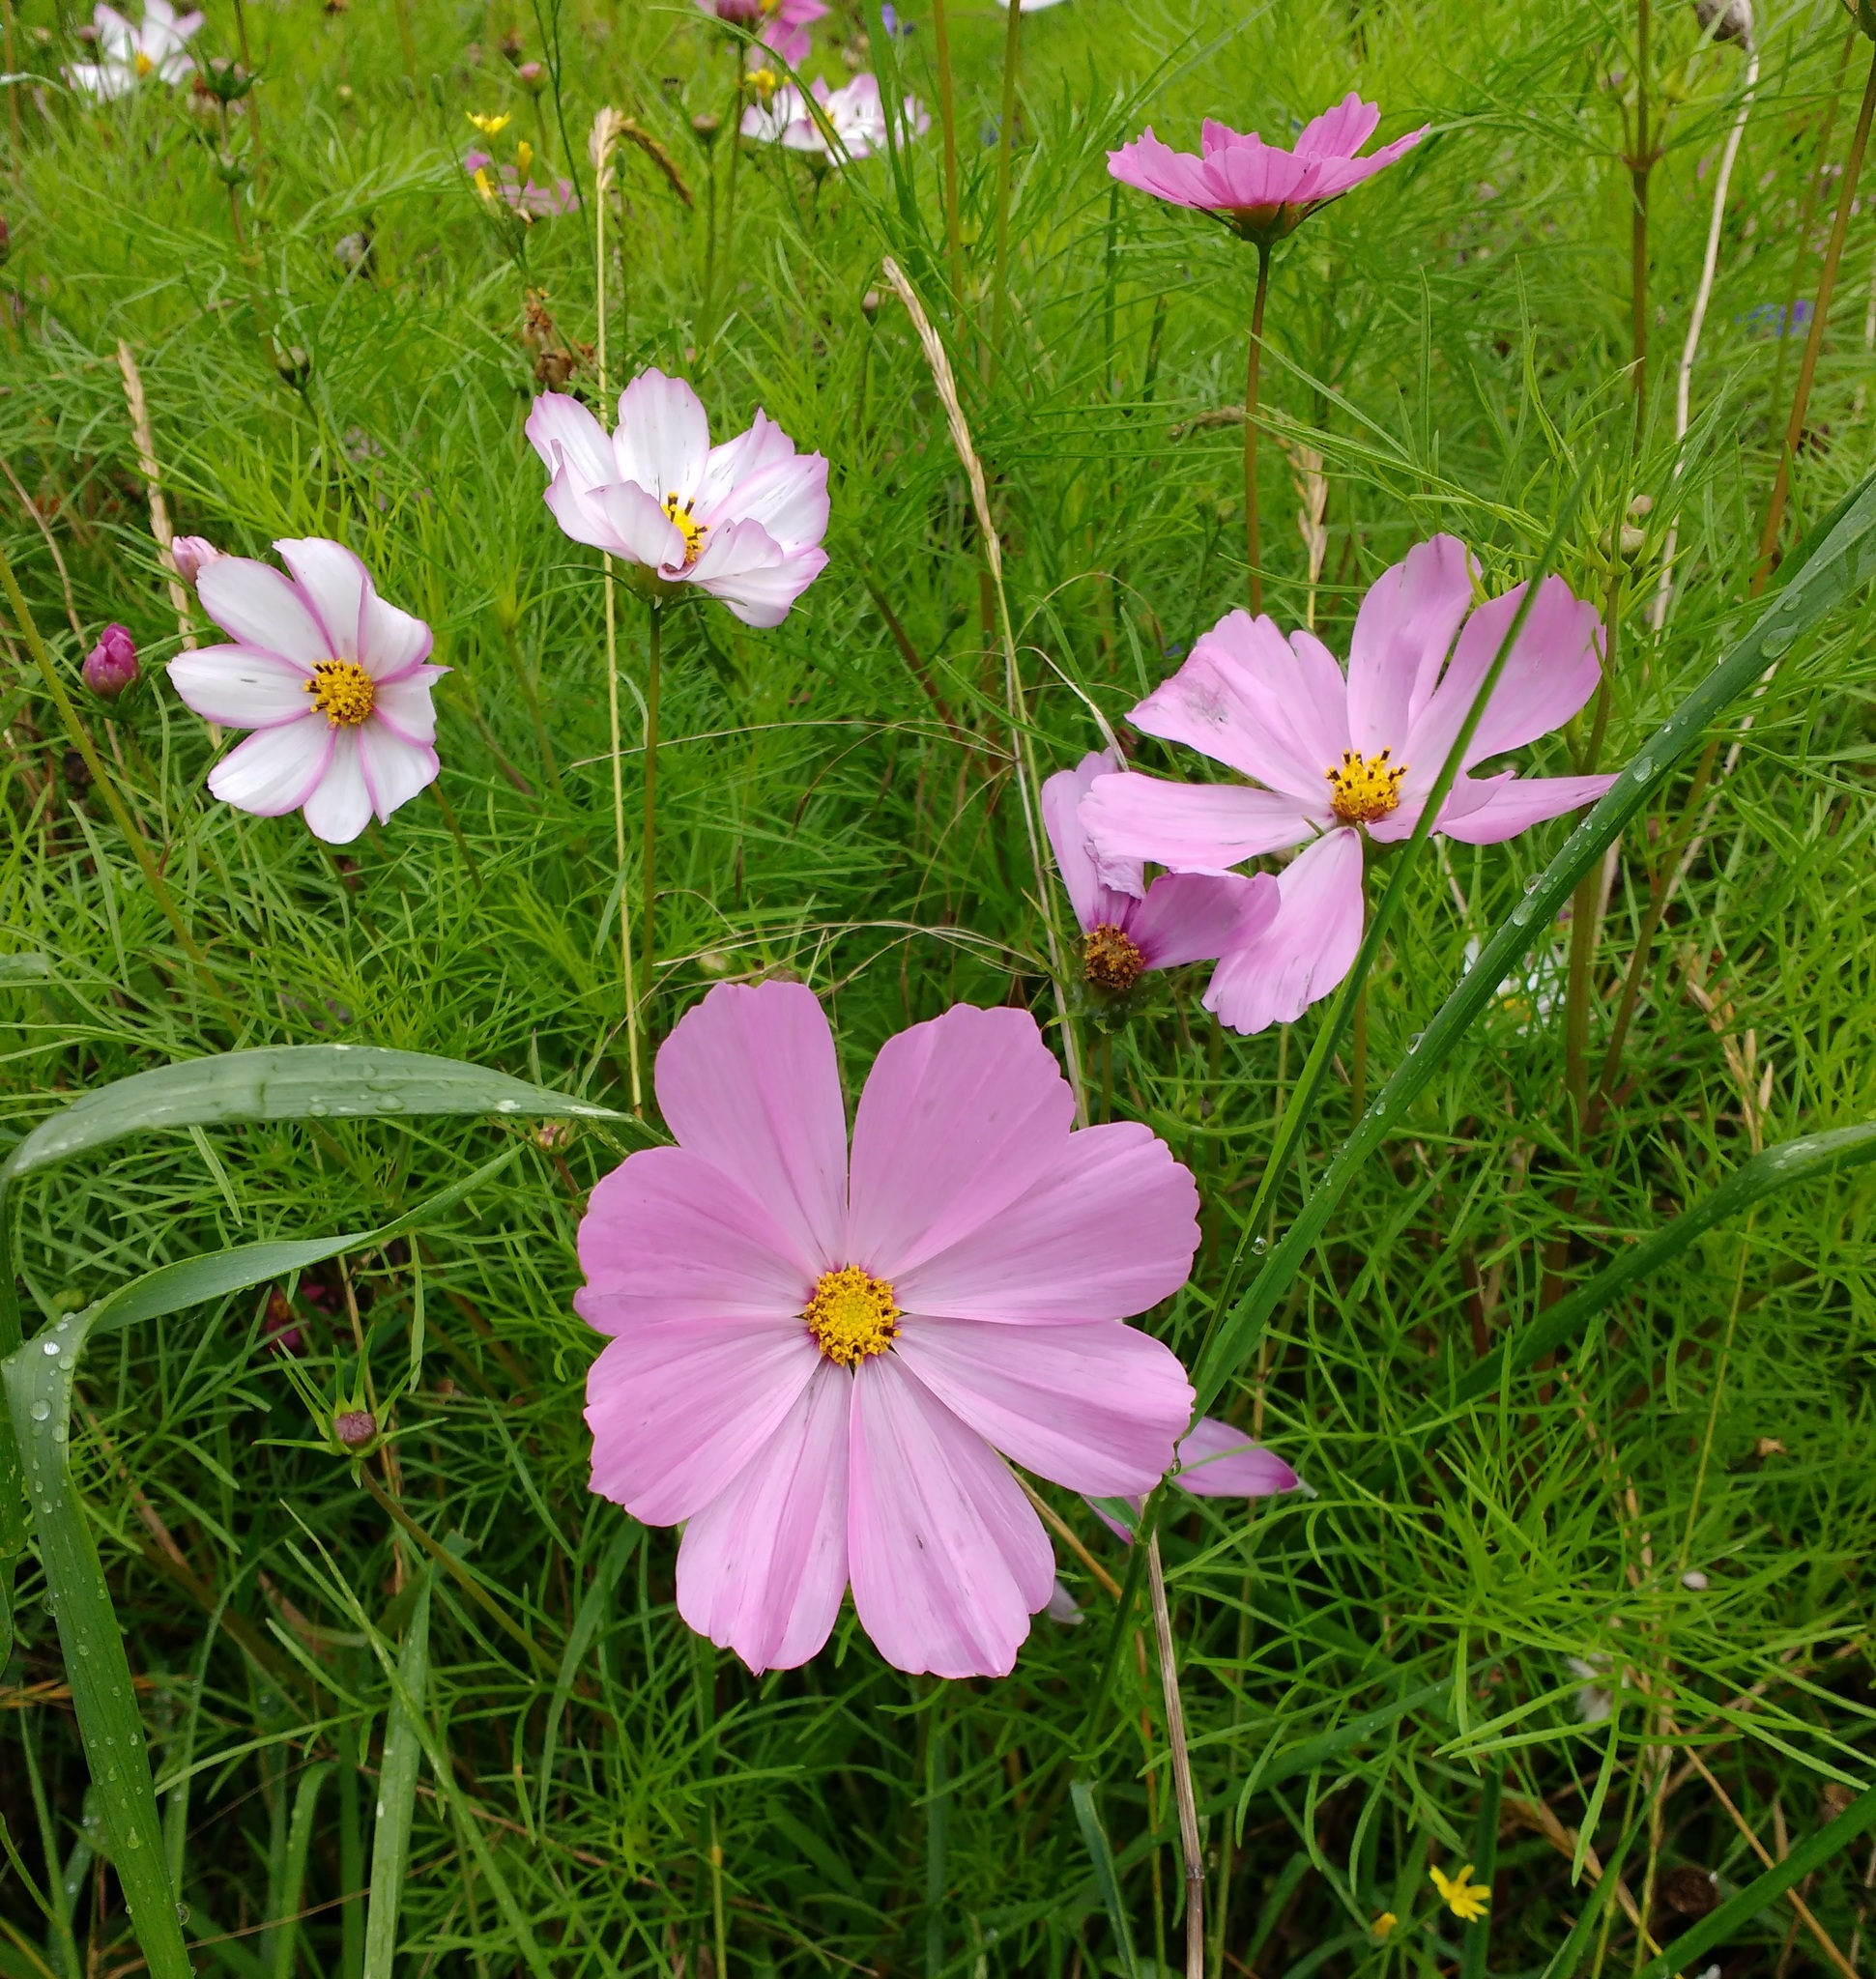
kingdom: Plantae
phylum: Tracheophyta
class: Magnoliopsida
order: Asterales
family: Asteraceae
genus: Cosmos
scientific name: Cosmos bipinnatus
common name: Garden cosmos
